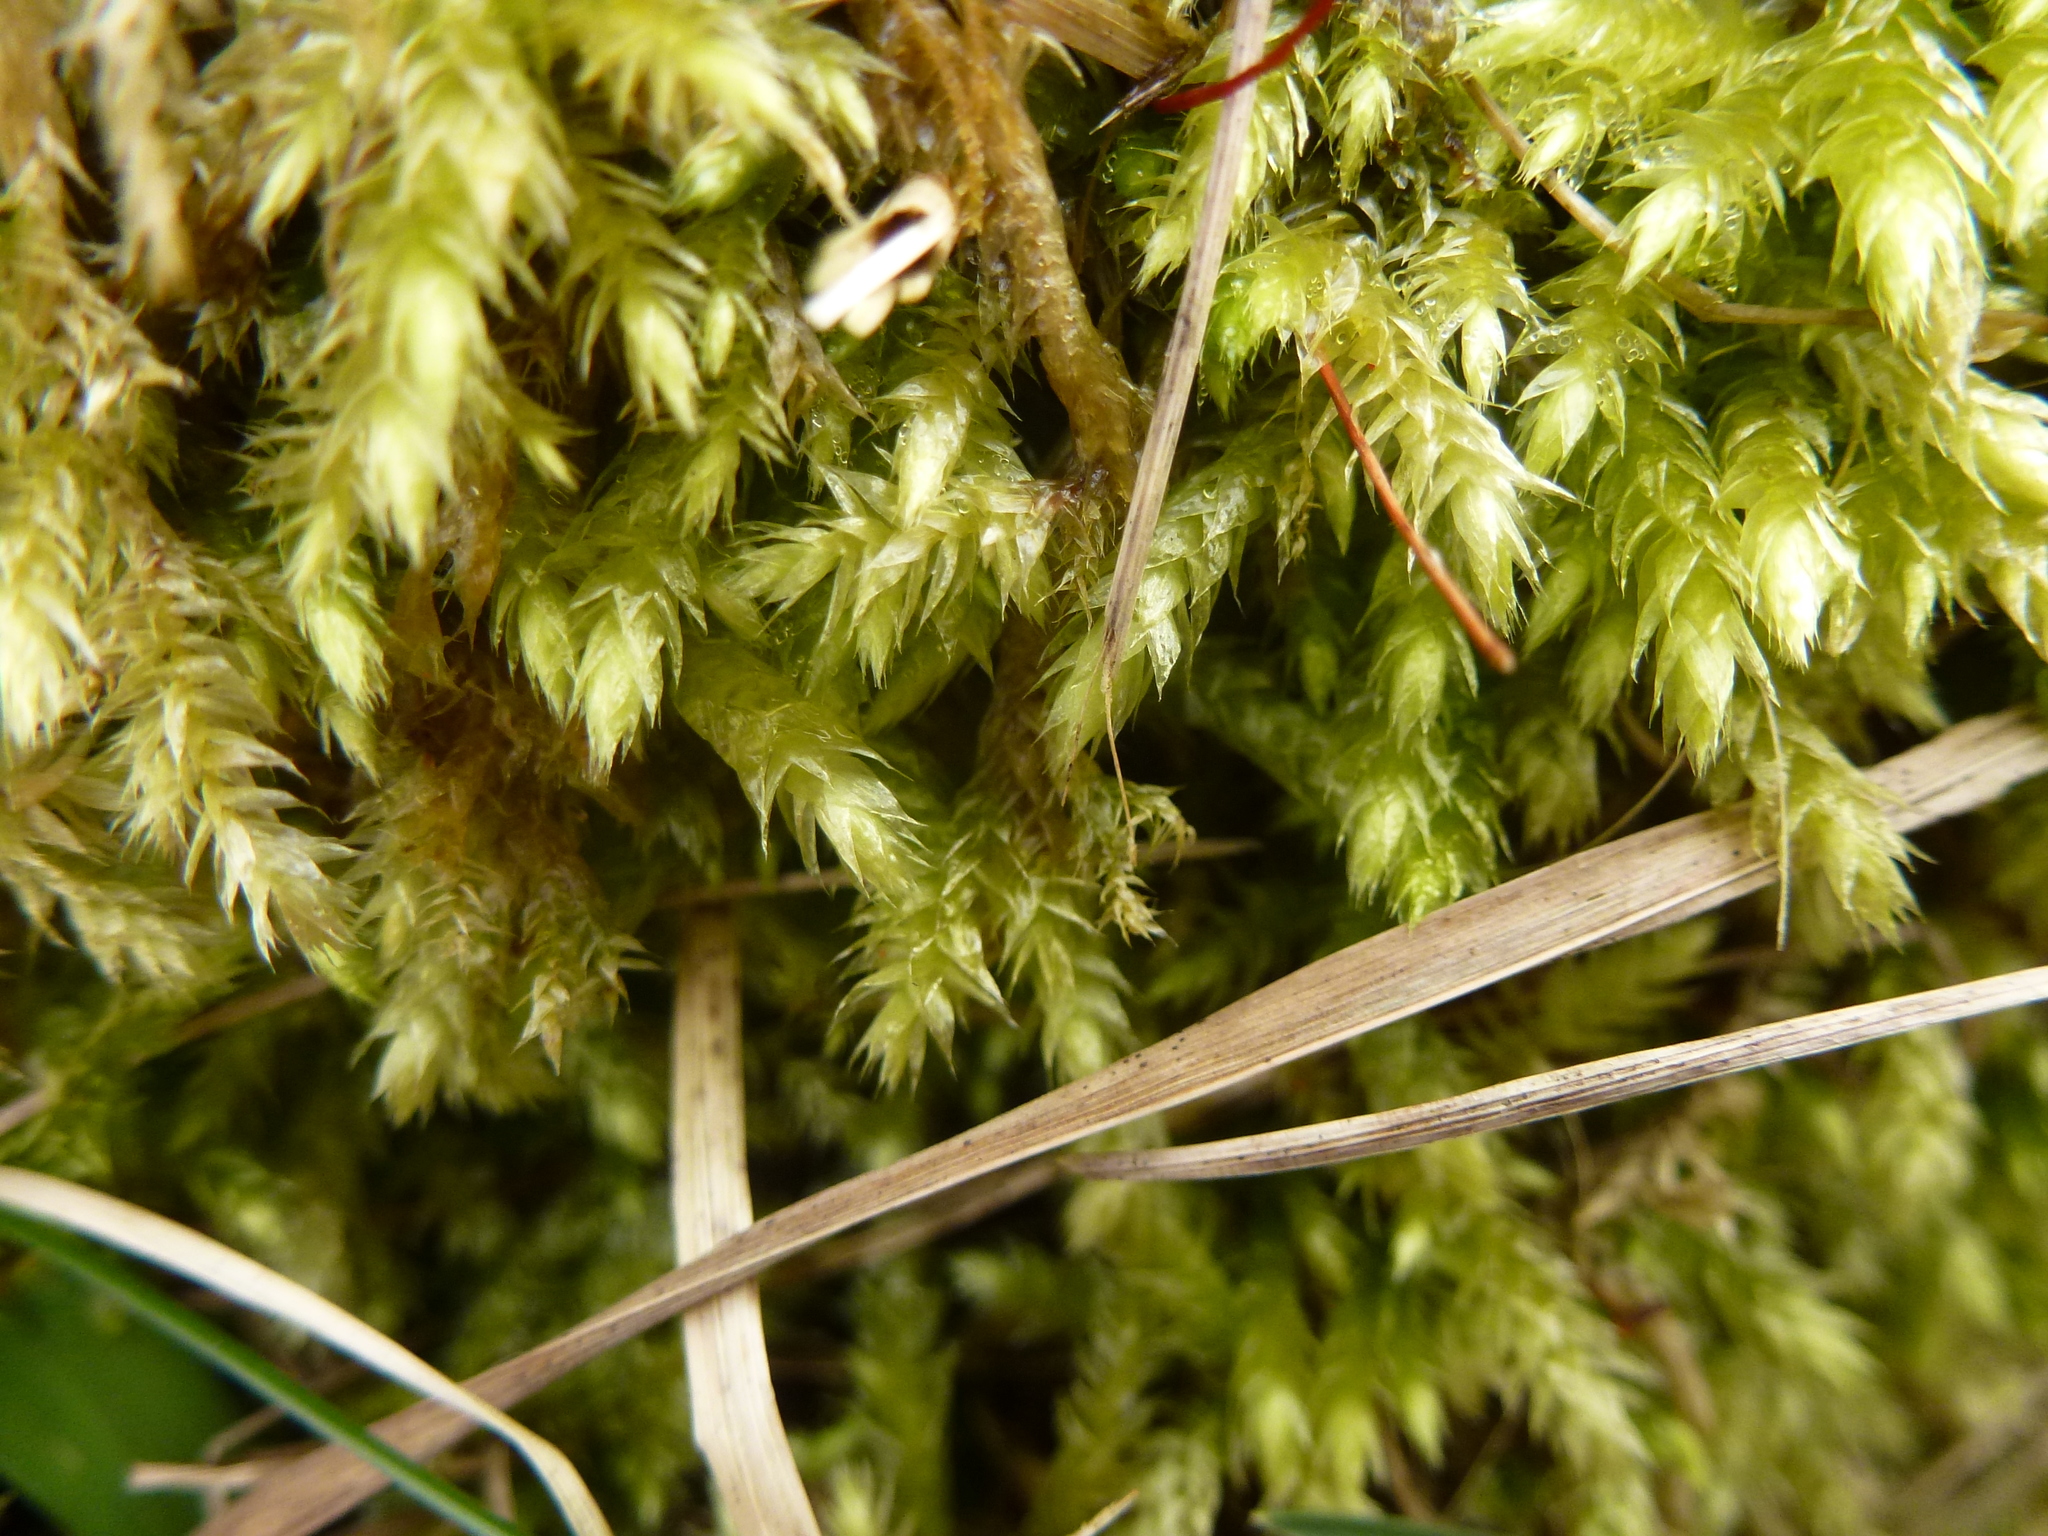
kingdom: Plantae
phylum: Bryophyta
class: Bryopsida
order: Hypnales
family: Brachytheciaceae
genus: Brachythecium
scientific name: Brachythecium rutabulum
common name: Rough-stalked feather-moss
